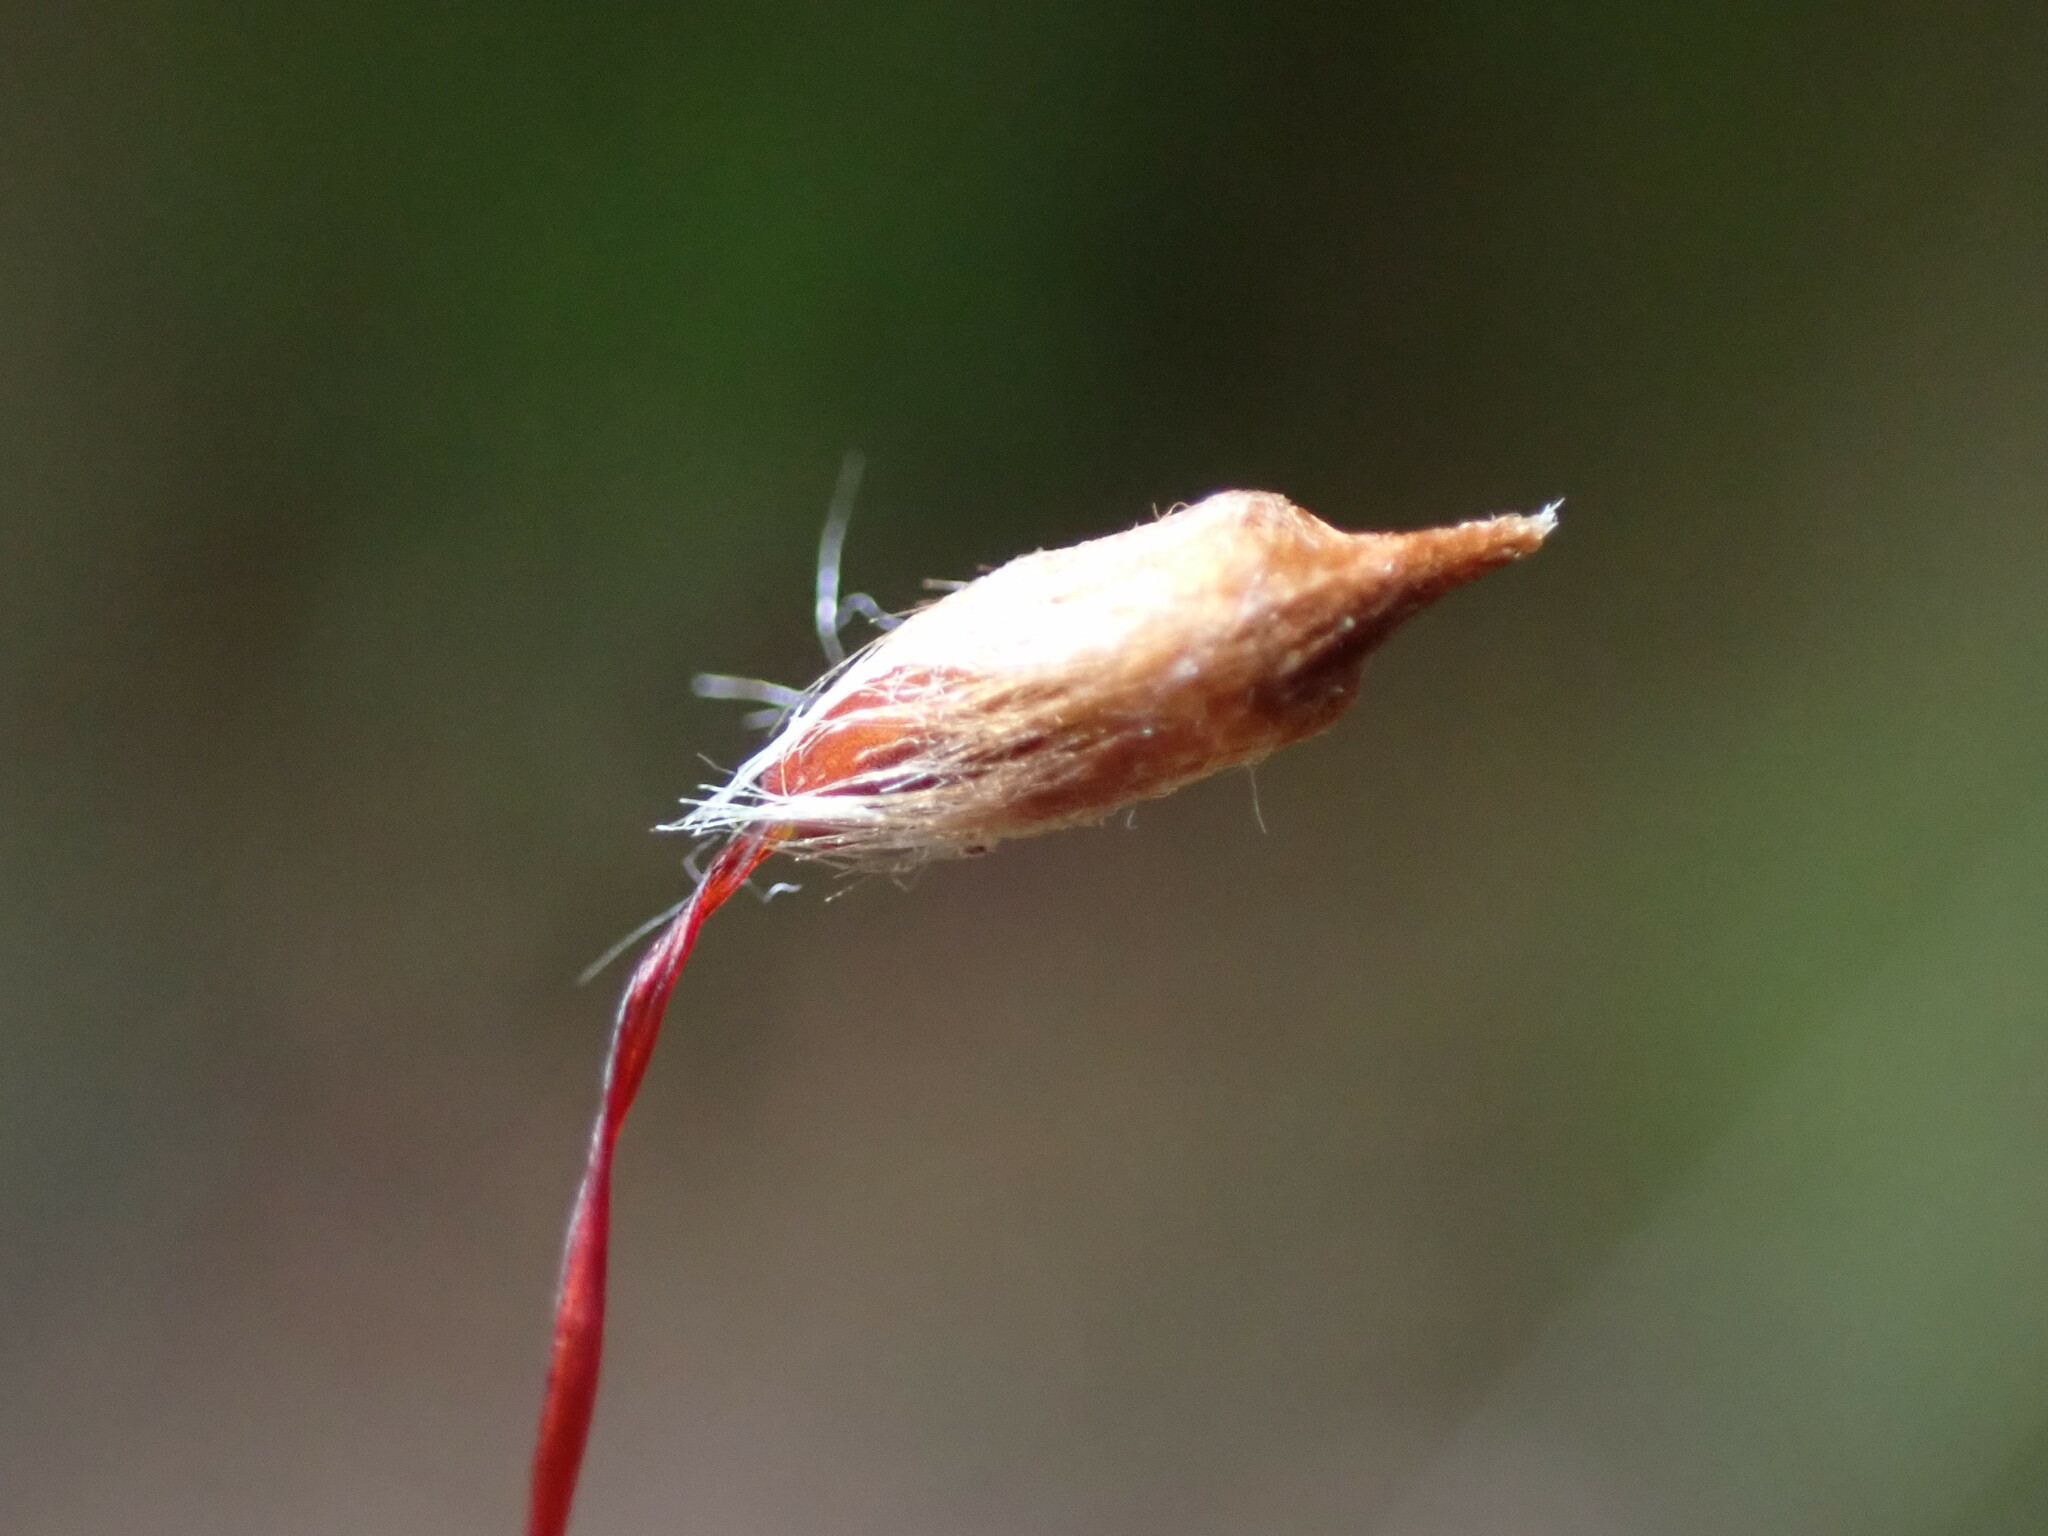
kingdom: Plantae
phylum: Bryophyta
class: Polytrichopsida
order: Polytrichales
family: Polytrichaceae
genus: Pogonatum
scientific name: Pogonatum contortum
